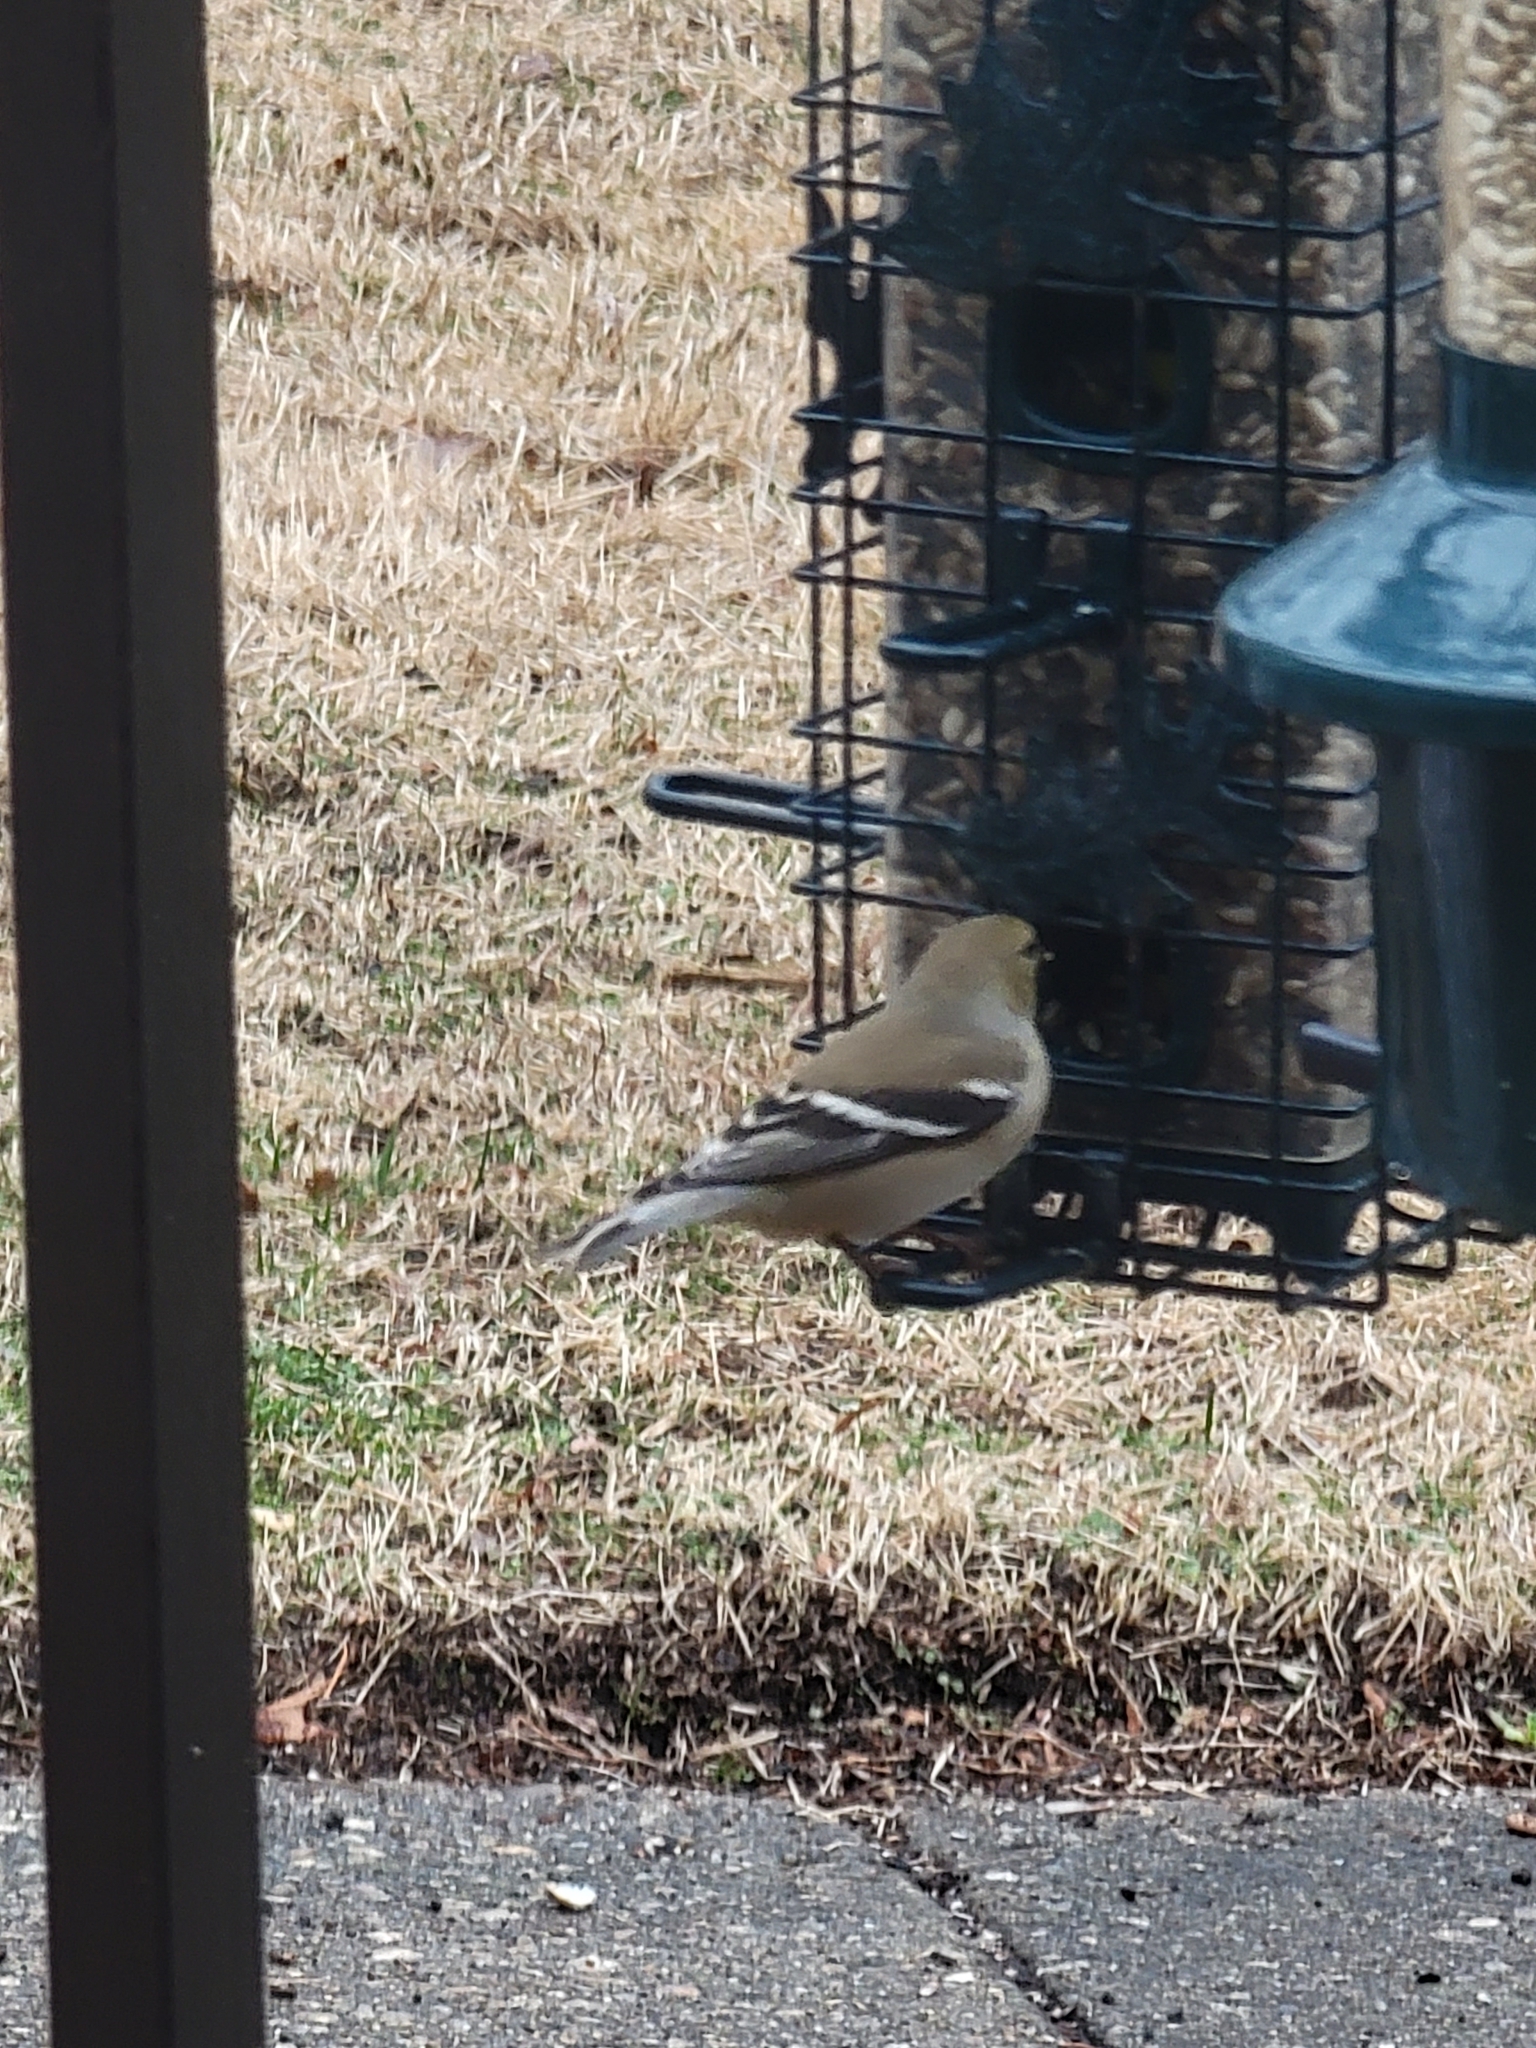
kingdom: Animalia
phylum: Chordata
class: Aves
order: Passeriformes
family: Fringillidae
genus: Spinus
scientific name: Spinus tristis
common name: American goldfinch
